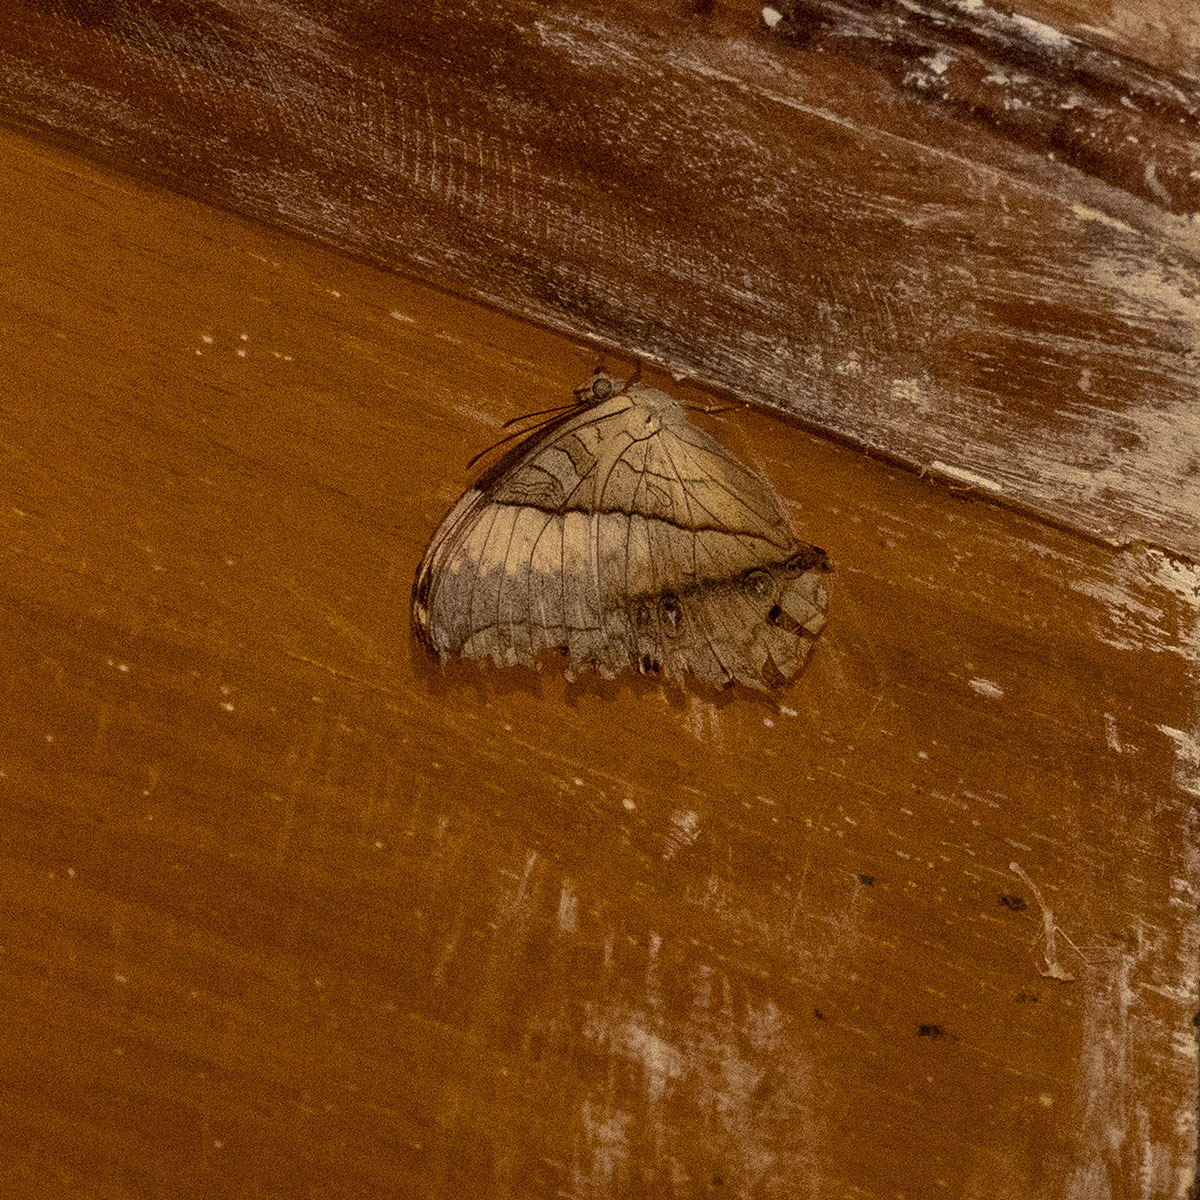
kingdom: Animalia
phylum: Arthropoda
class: Insecta
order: Lepidoptera
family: Nymphalidae
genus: Vindula
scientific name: Vindula erota
